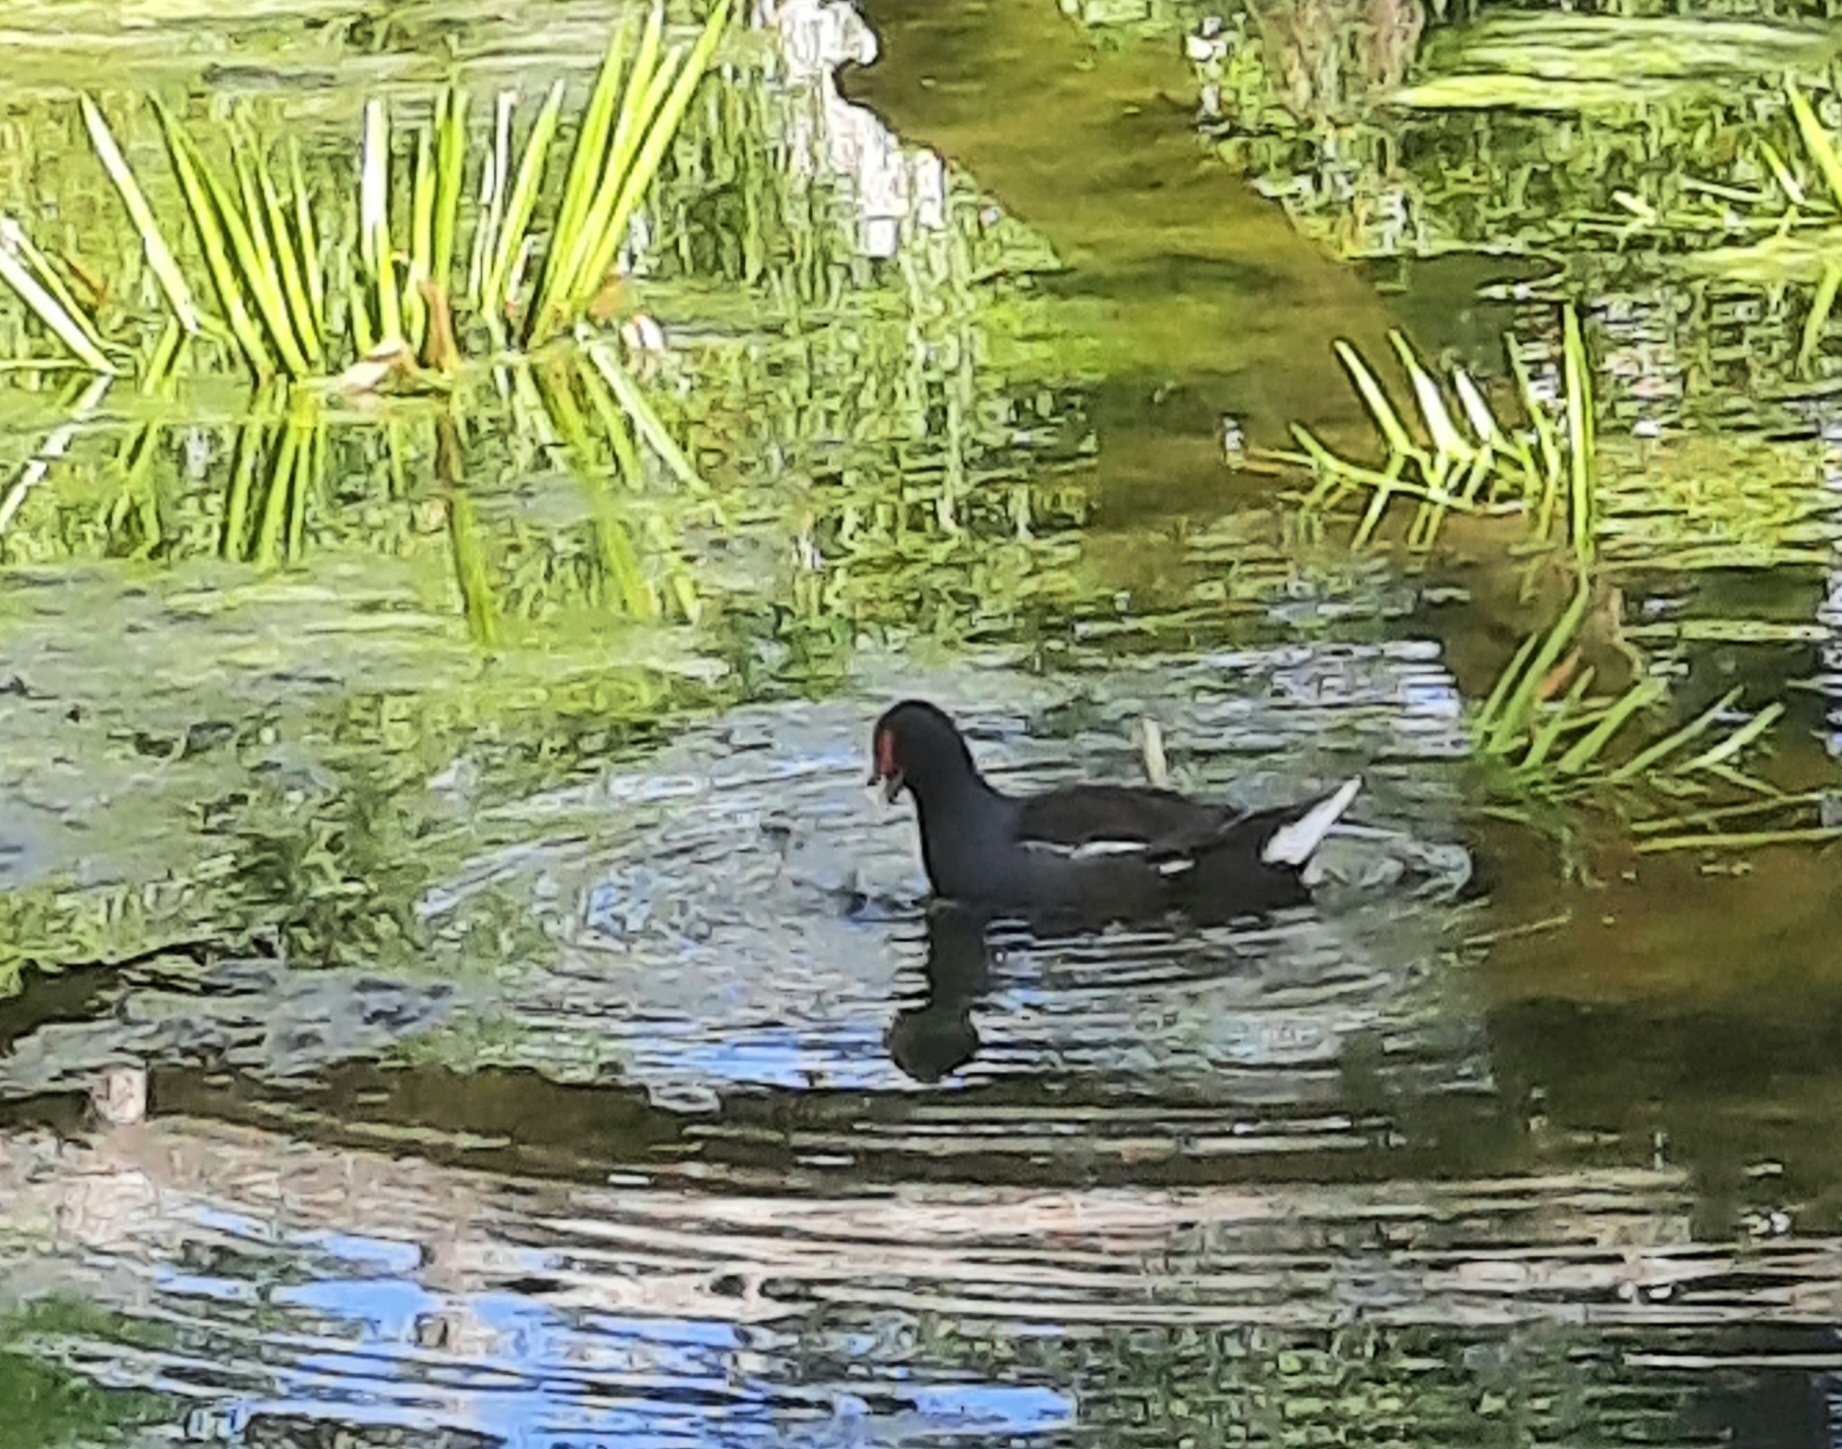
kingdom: Animalia
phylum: Chordata
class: Aves
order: Gruiformes
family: Rallidae
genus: Gallinula
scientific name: Gallinula chloropus
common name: Common moorhen
